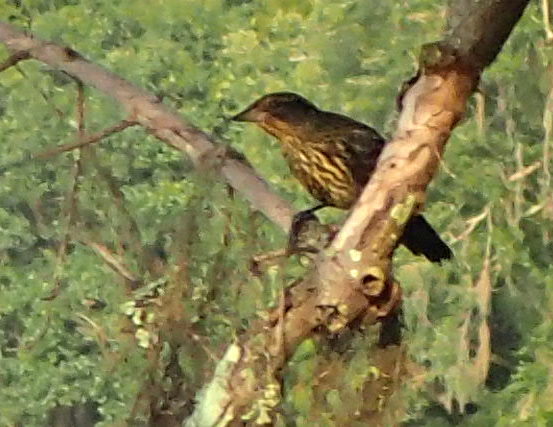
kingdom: Animalia
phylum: Chordata
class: Aves
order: Passeriformes
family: Icteridae
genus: Agelaius
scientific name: Agelaius phoeniceus
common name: Red-winged blackbird
